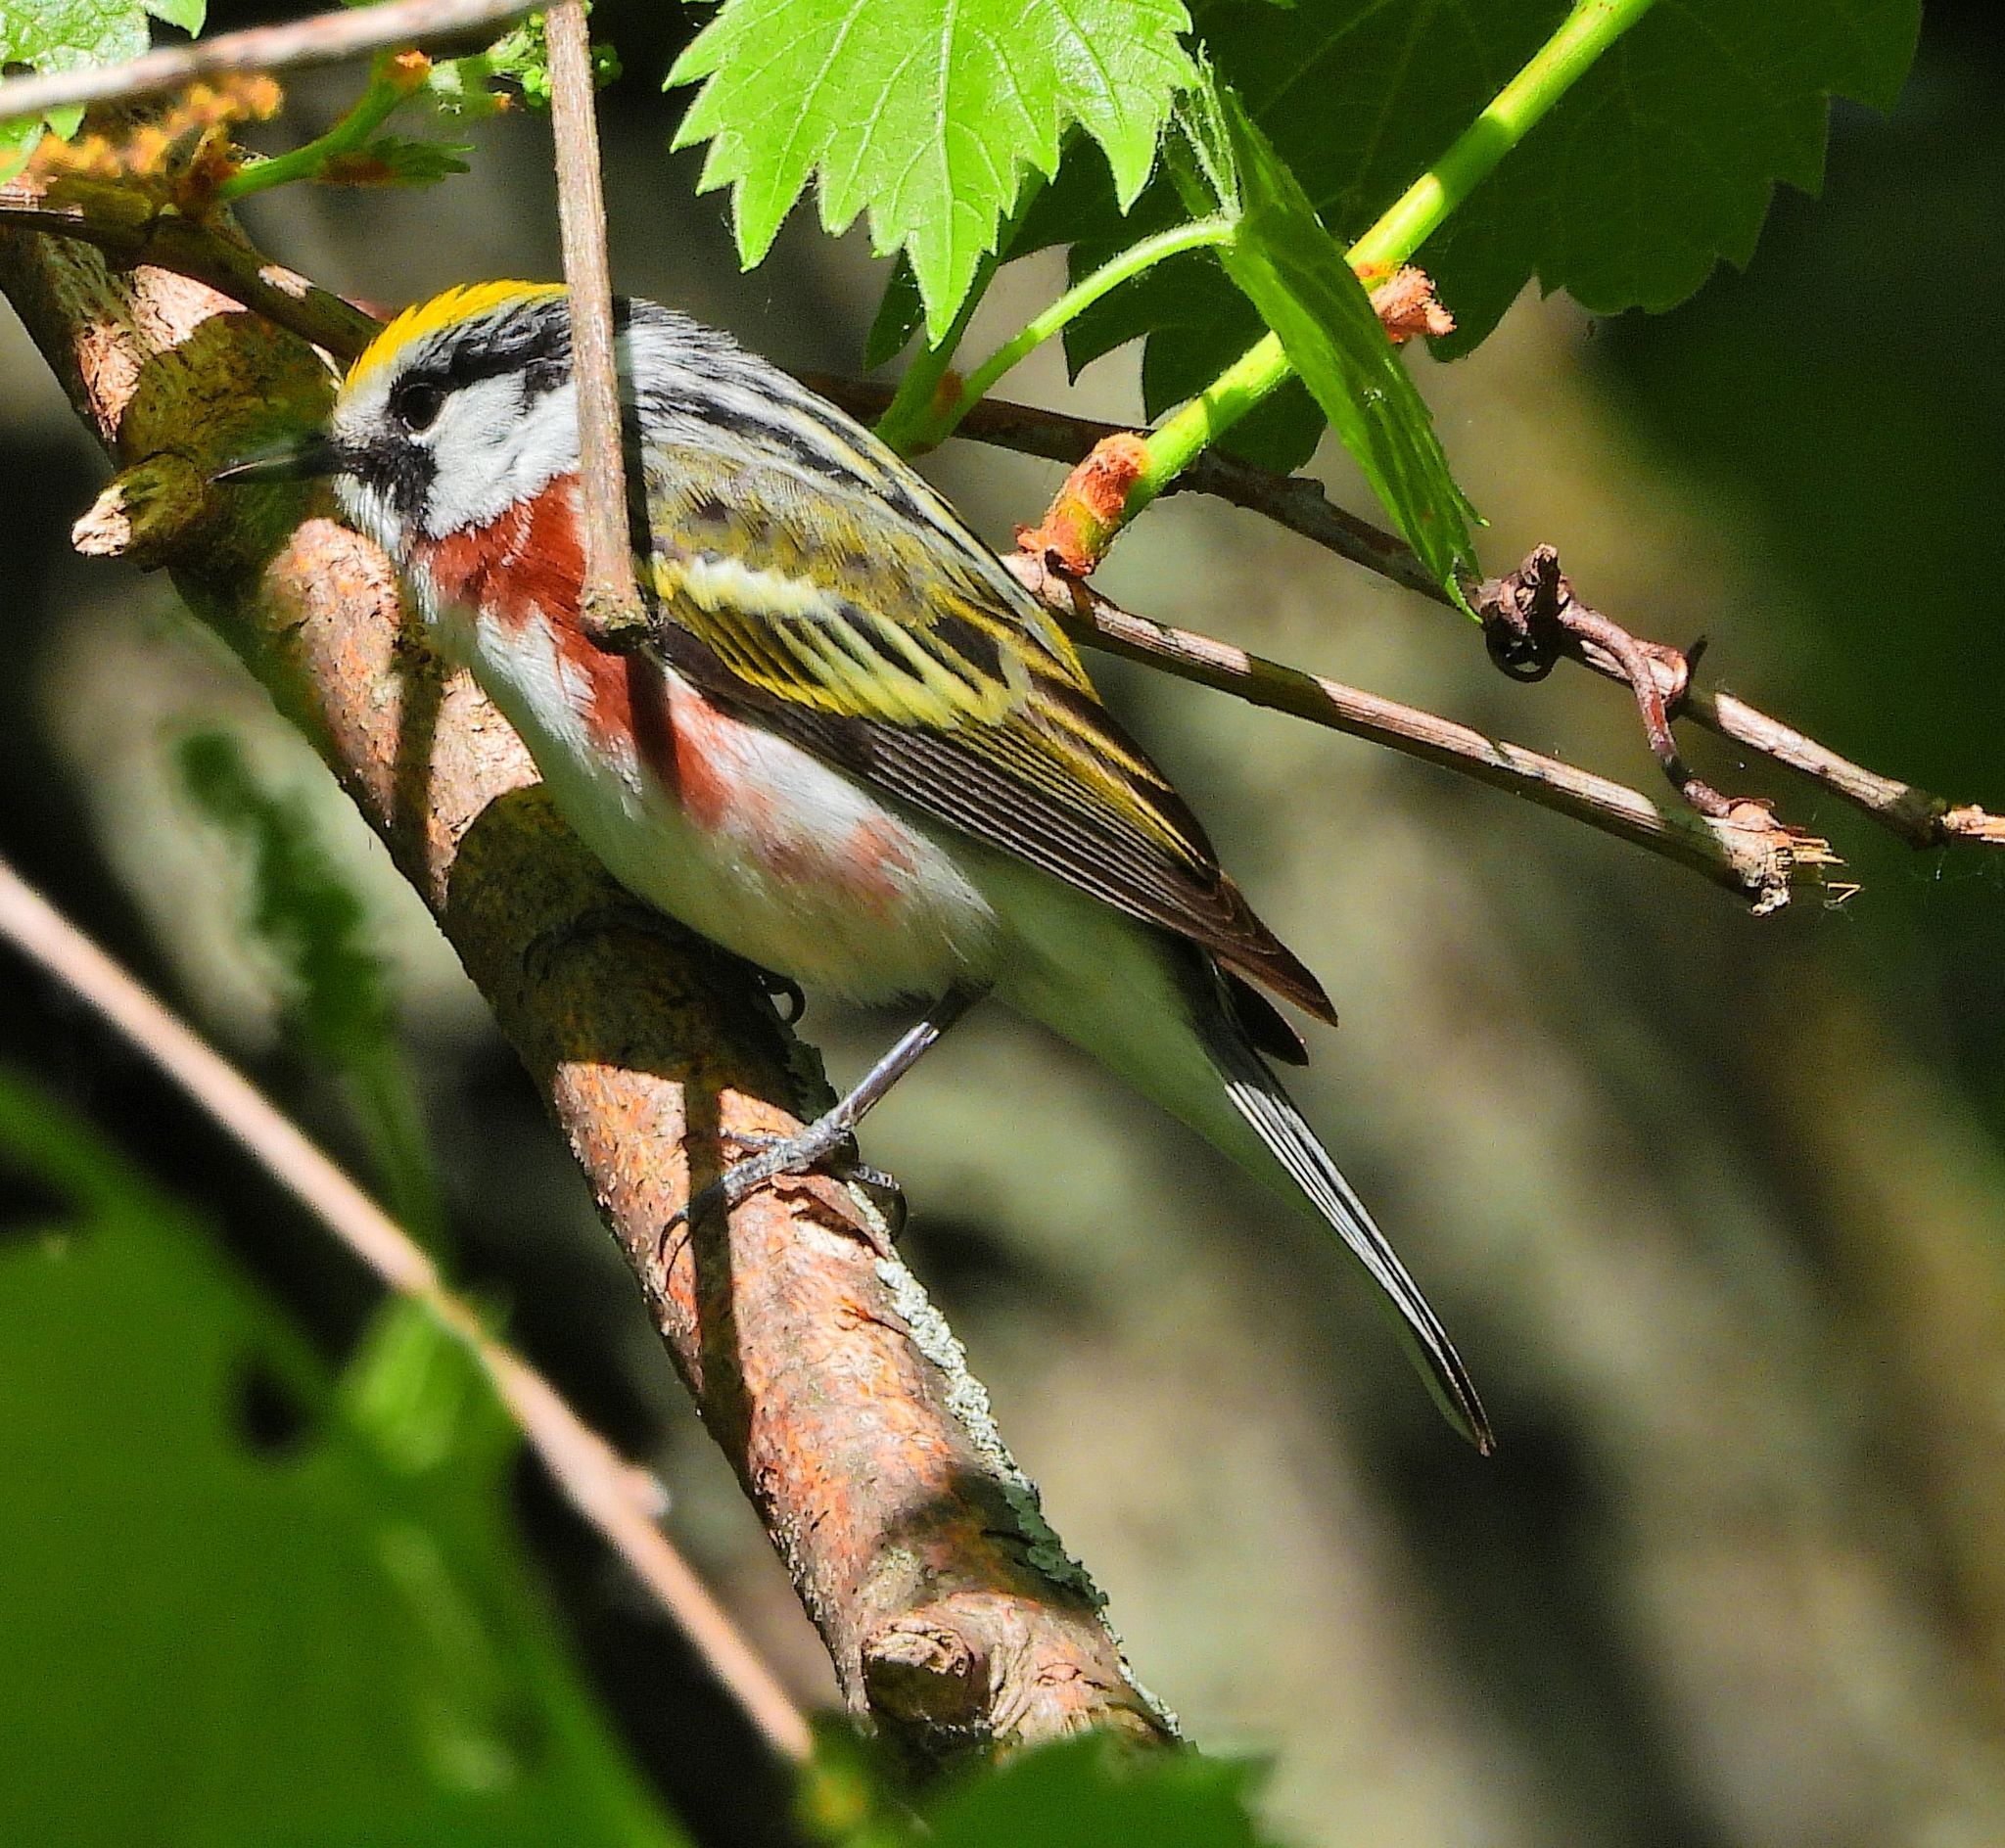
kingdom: Animalia
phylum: Chordata
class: Aves
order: Passeriformes
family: Parulidae
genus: Setophaga
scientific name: Setophaga pensylvanica
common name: Chestnut-sided warbler
